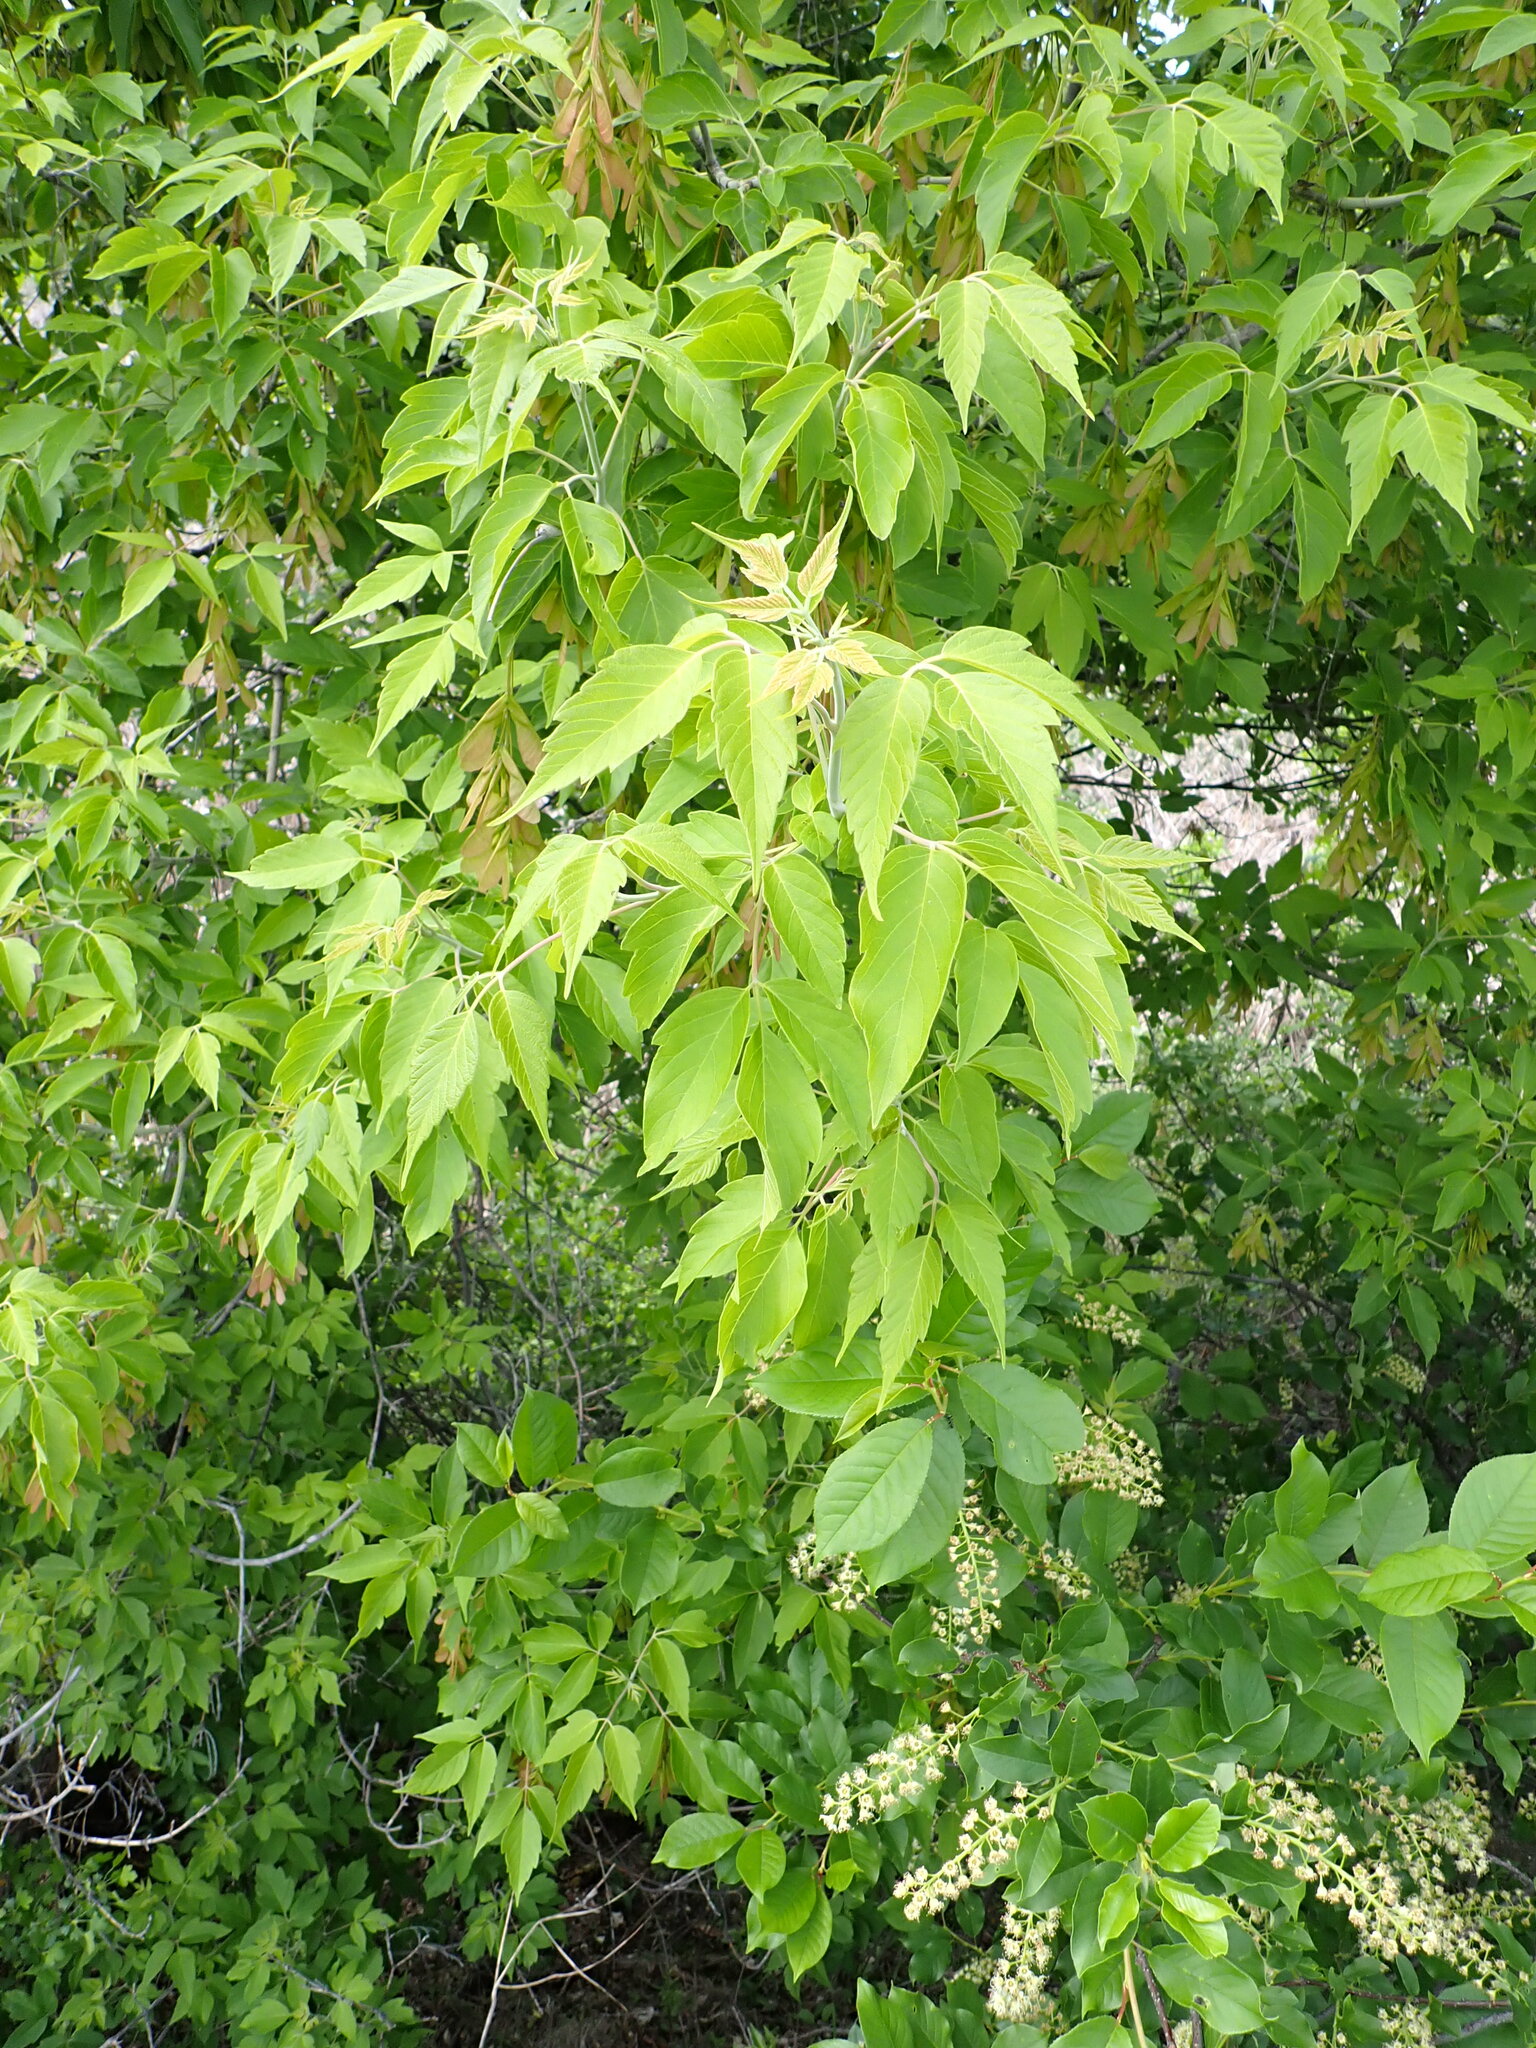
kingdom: Plantae
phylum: Tracheophyta
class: Magnoliopsida
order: Sapindales
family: Sapindaceae
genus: Acer
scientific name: Acer negundo
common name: Ashleaf maple
